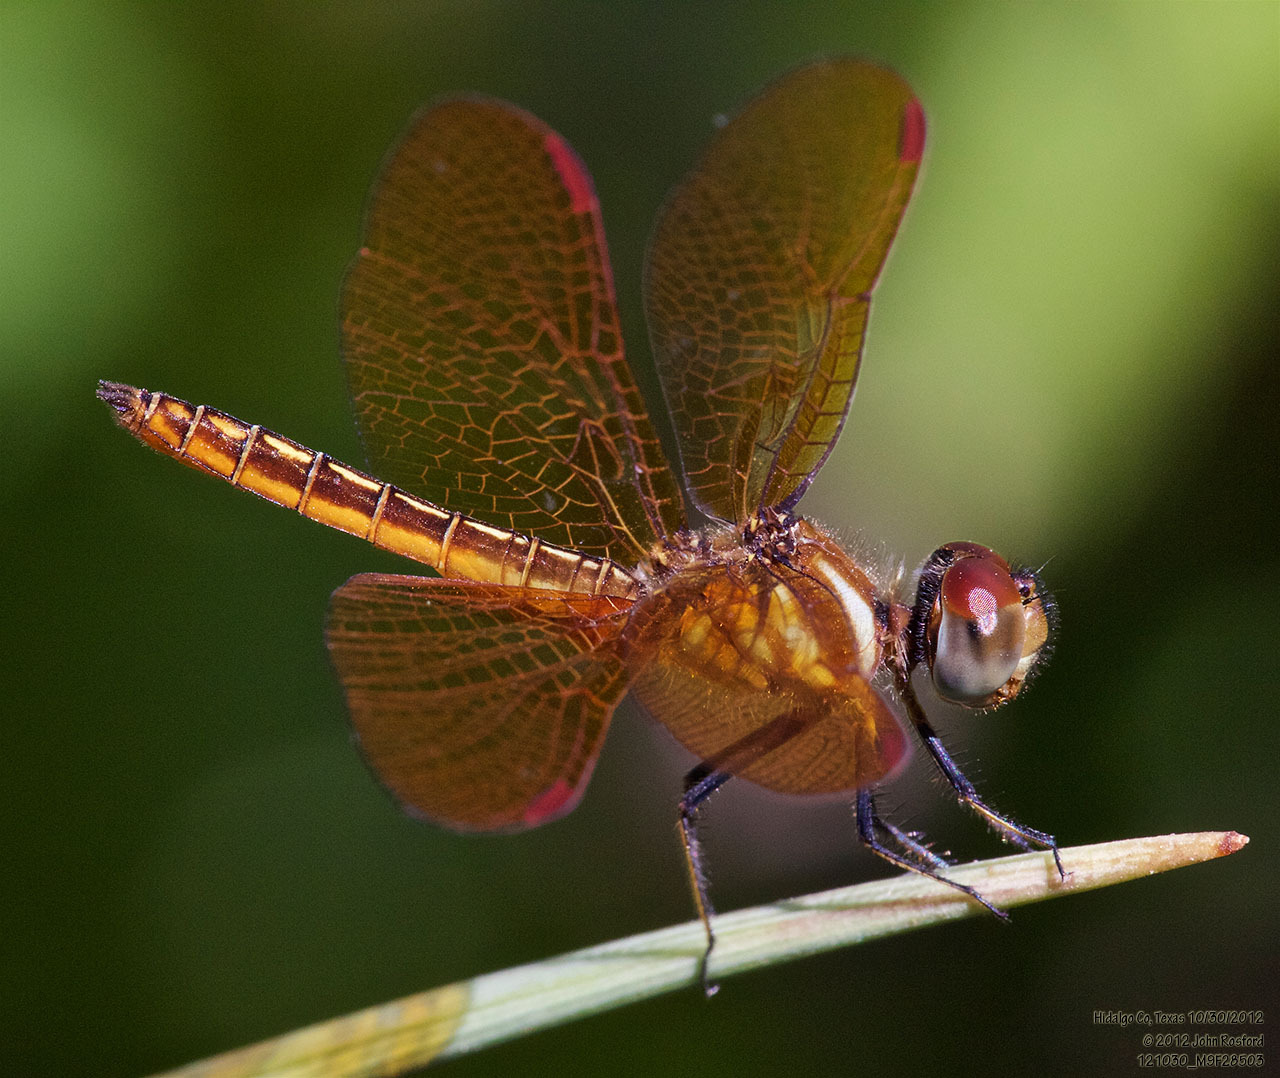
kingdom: Animalia
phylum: Arthropoda
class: Insecta
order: Odonata
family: Libellulidae
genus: Perithemis
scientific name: Perithemis domitia
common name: Slough amberwing
